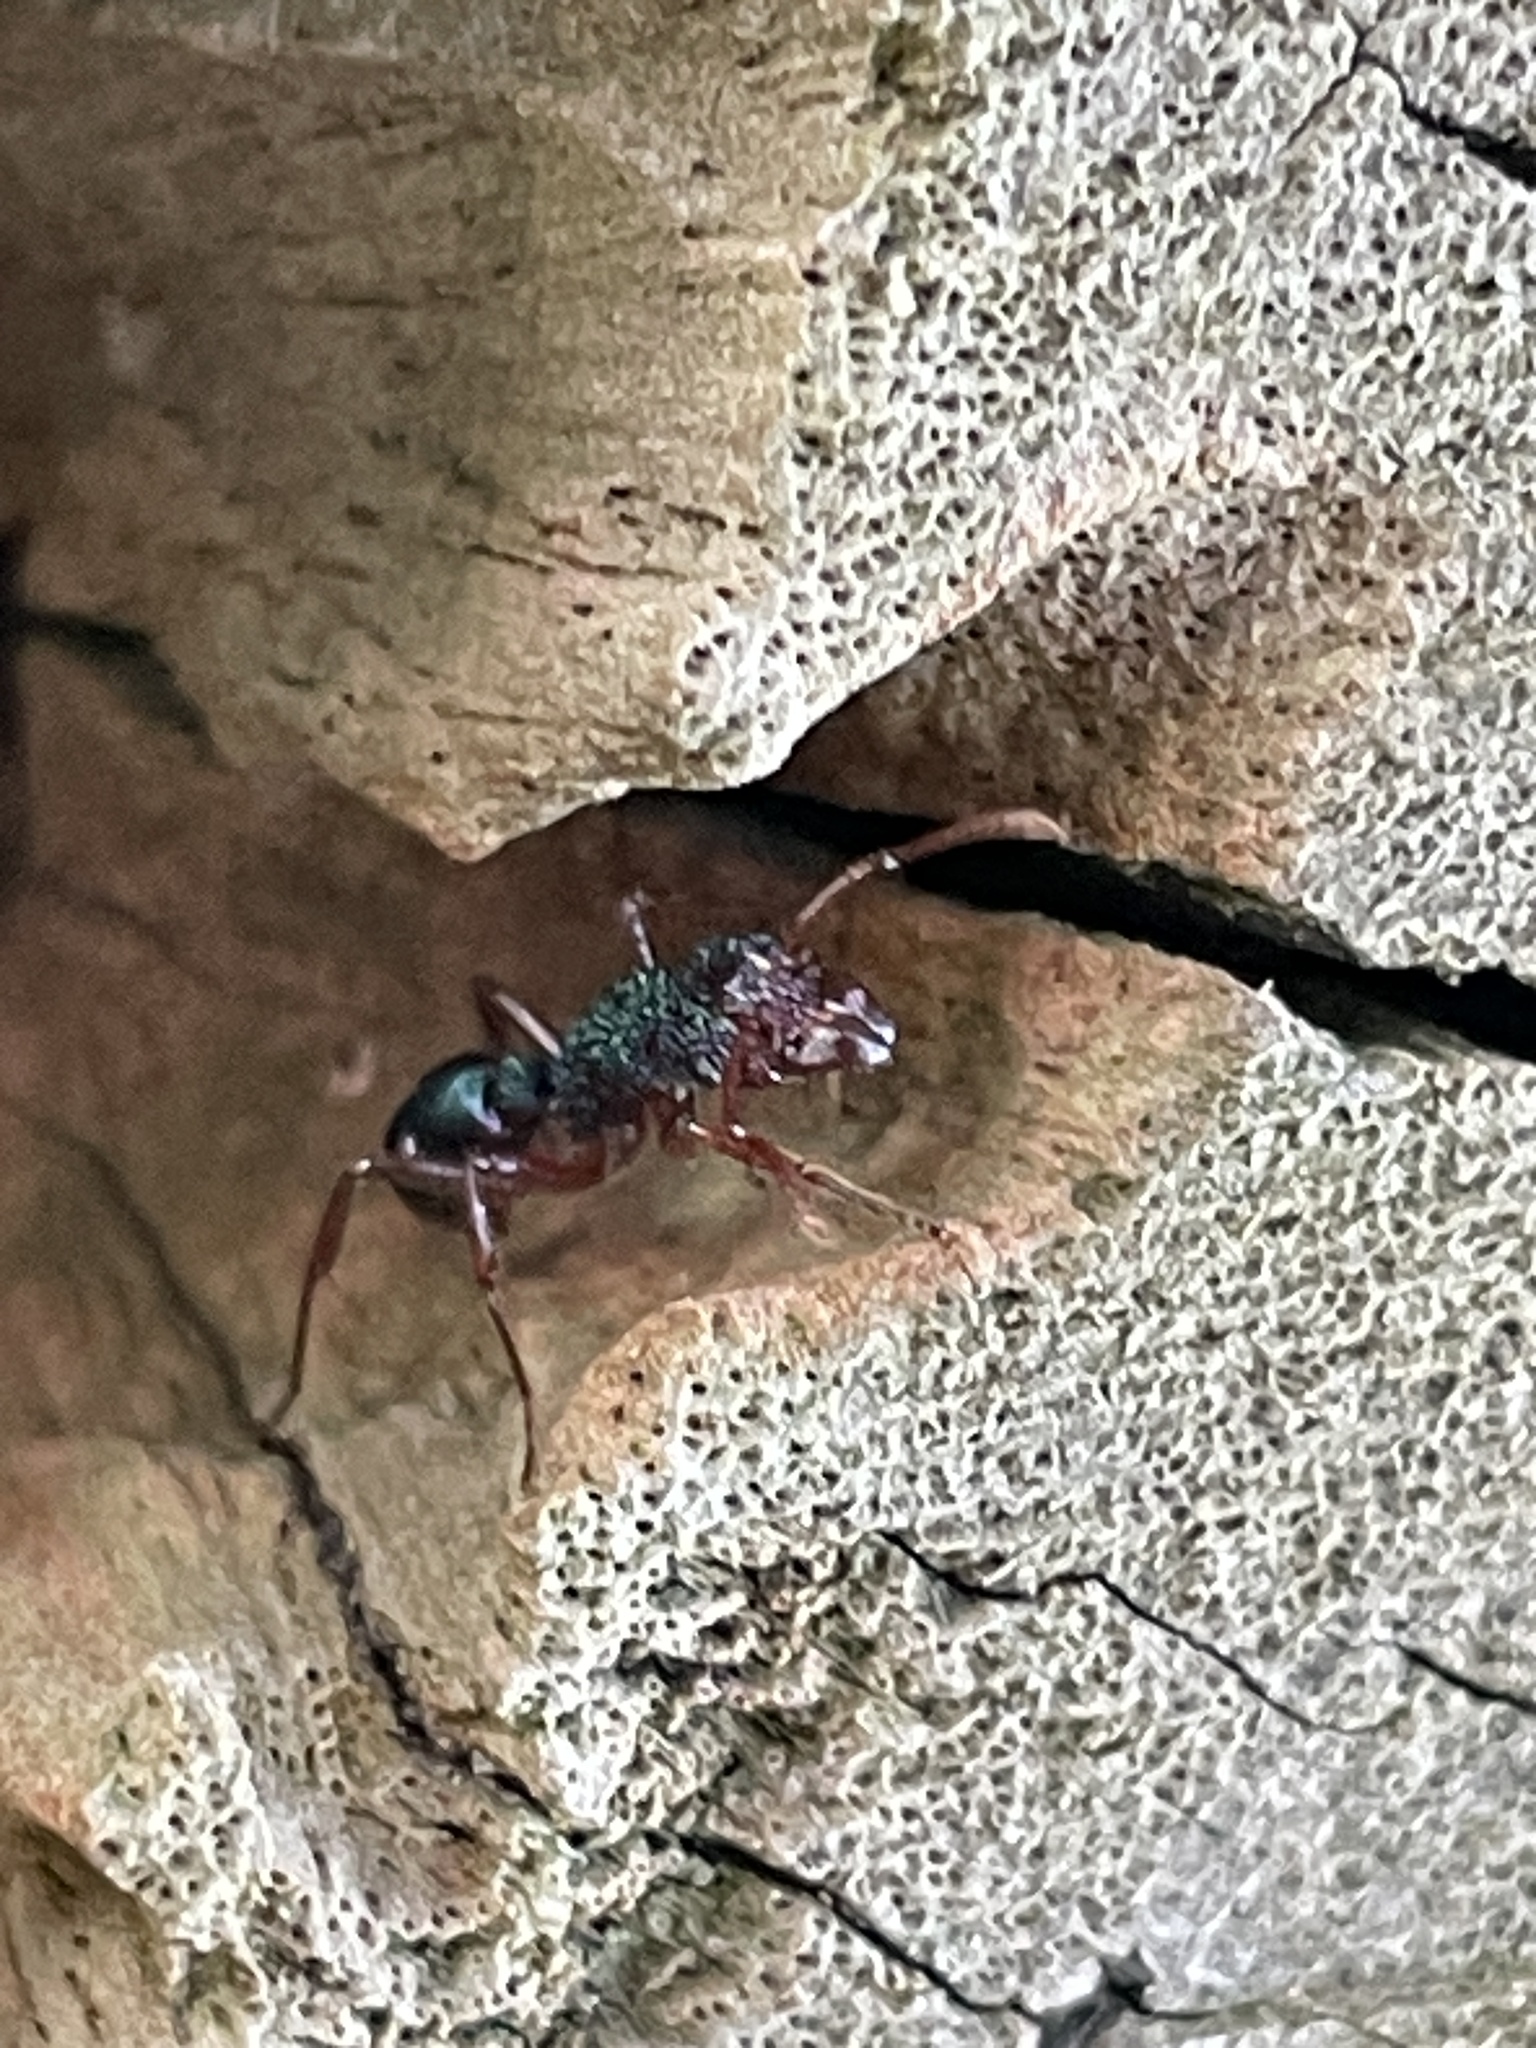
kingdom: Animalia
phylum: Arthropoda
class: Insecta
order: Hymenoptera
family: Formicidae
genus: Rhytidoponera
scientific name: Rhytidoponera aspera
